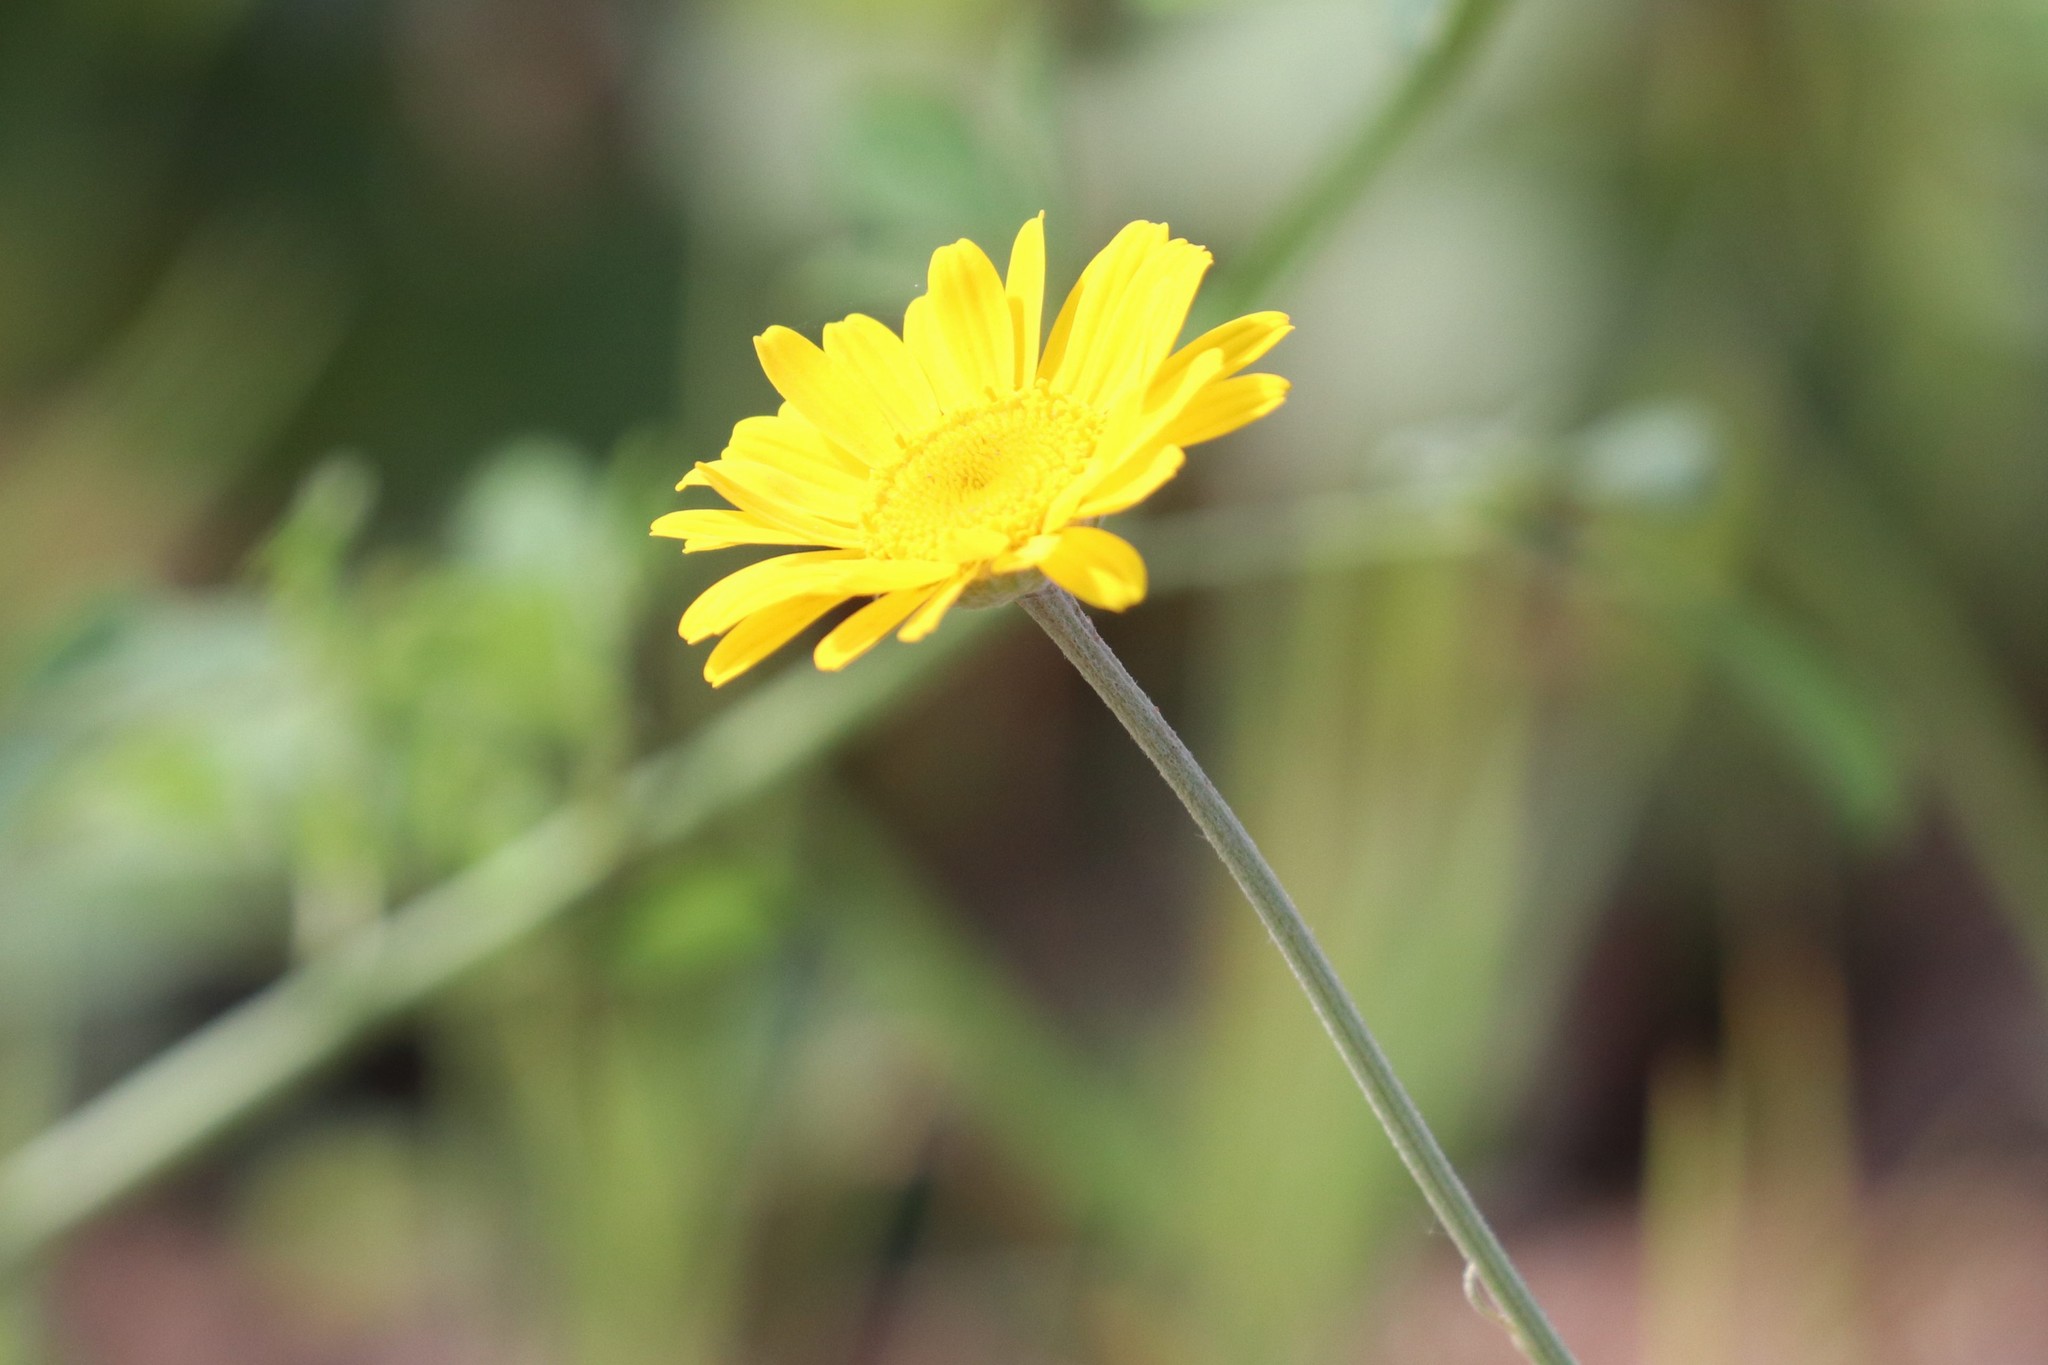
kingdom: Plantae
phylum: Tracheophyta
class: Magnoliopsida
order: Asterales
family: Asteraceae
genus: Cota
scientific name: Cota tinctoria
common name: Golden chamomile
